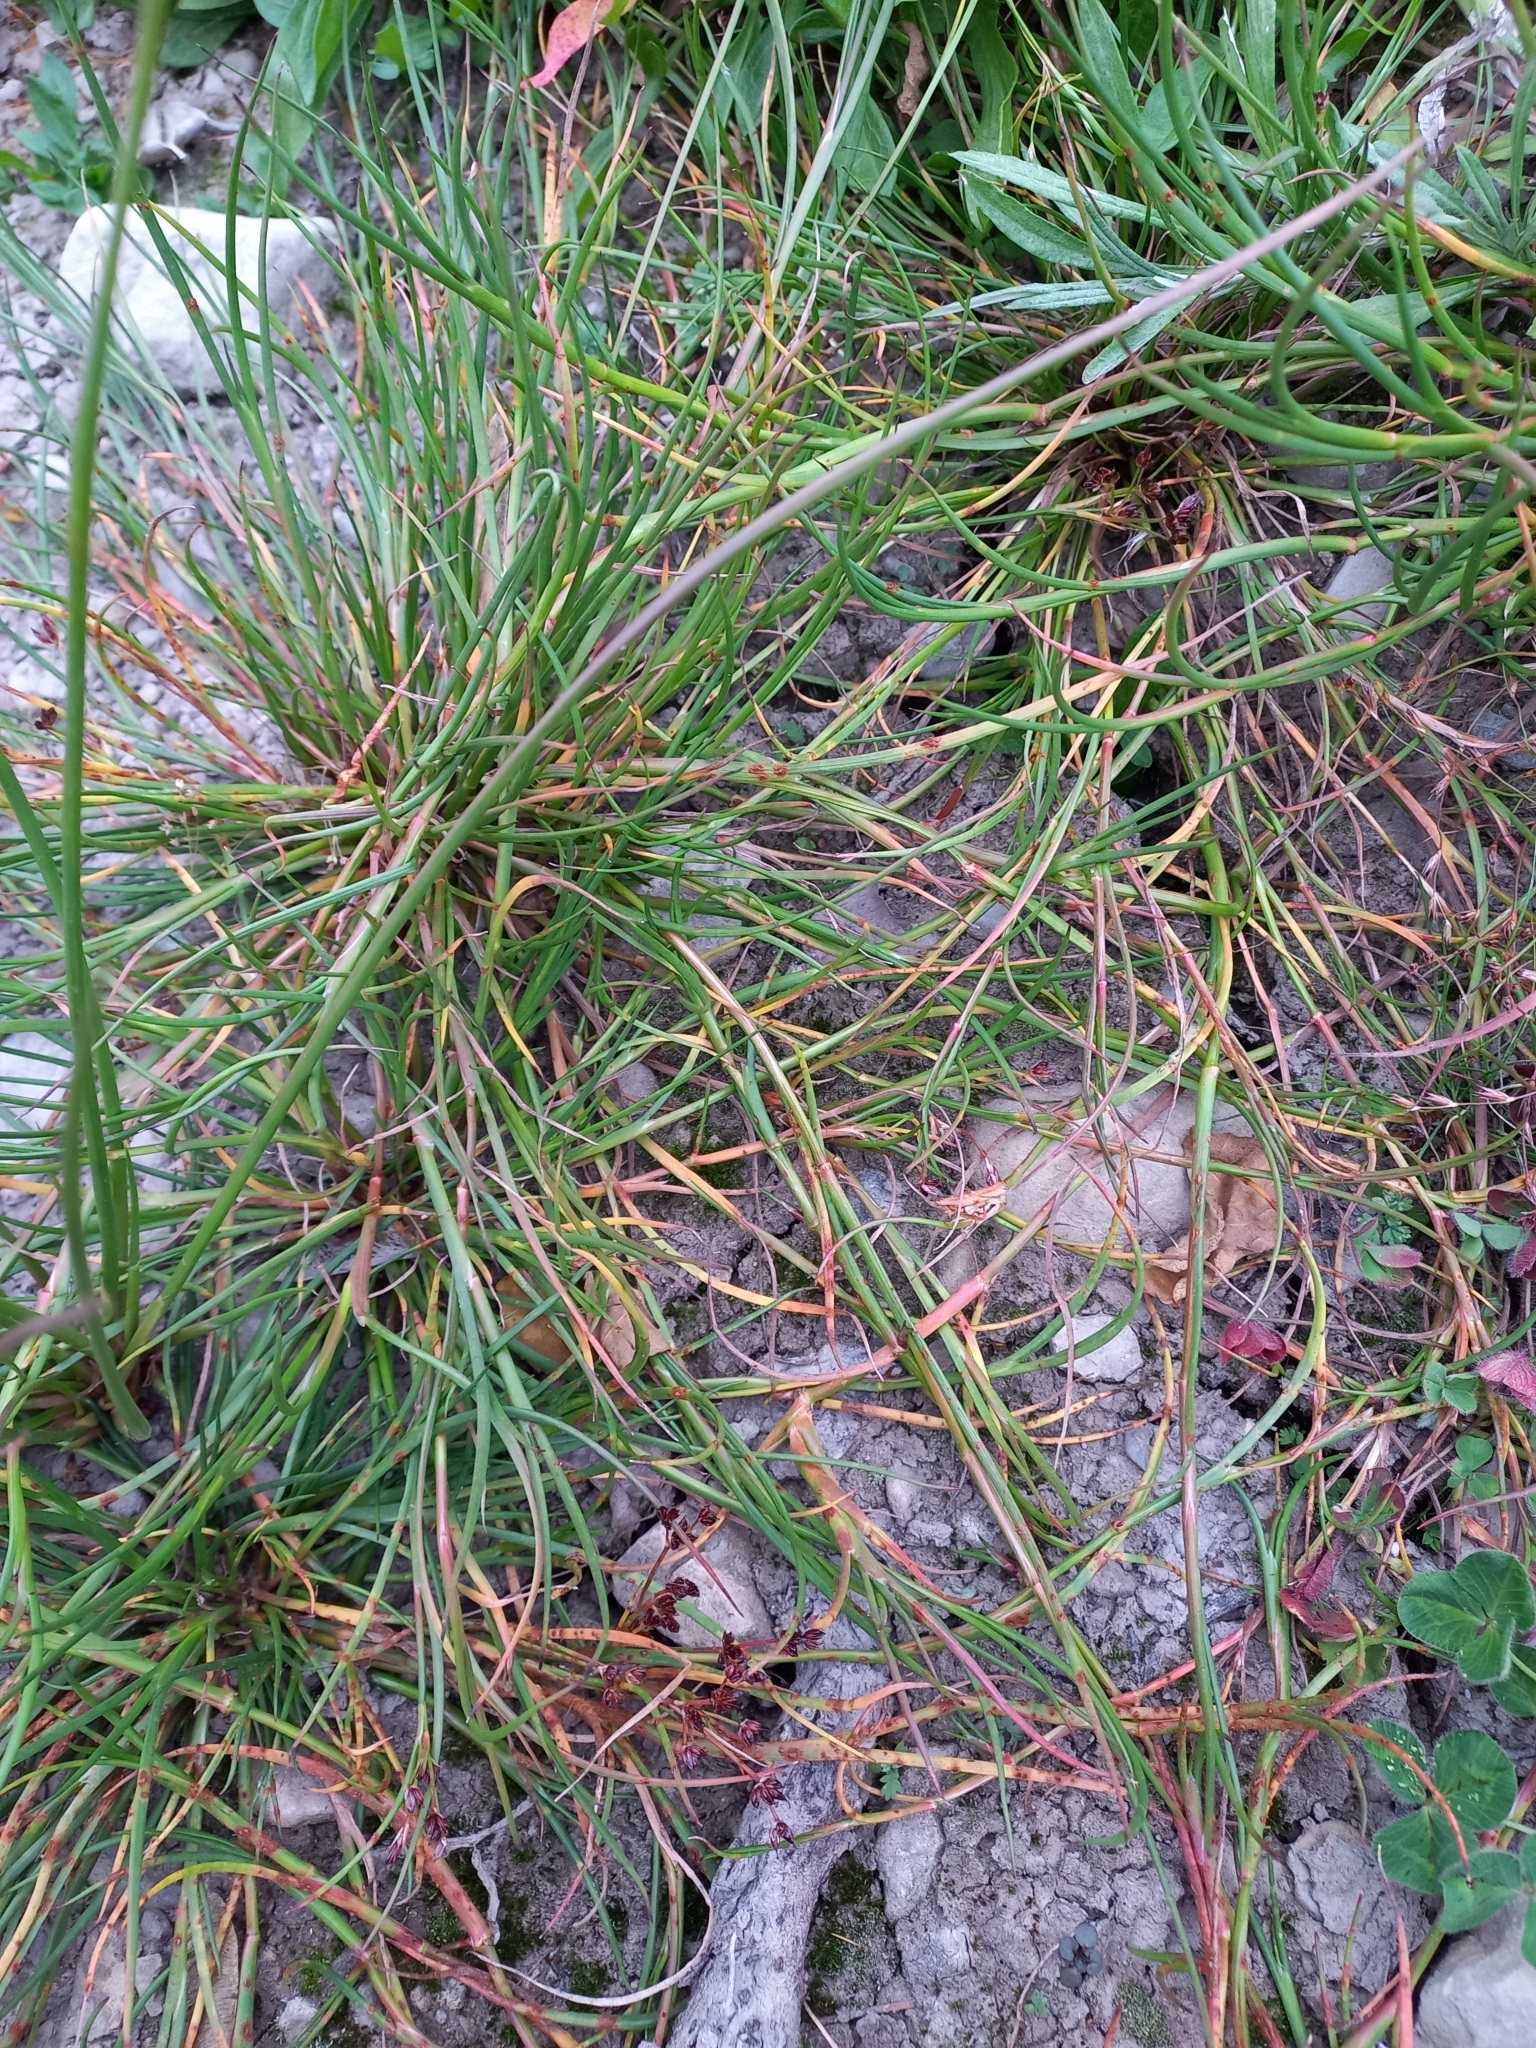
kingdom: Plantae
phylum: Tracheophyta
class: Liliopsida
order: Poales
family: Juncaceae
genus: Juncus
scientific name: Juncus articulatus
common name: Jointed rush
